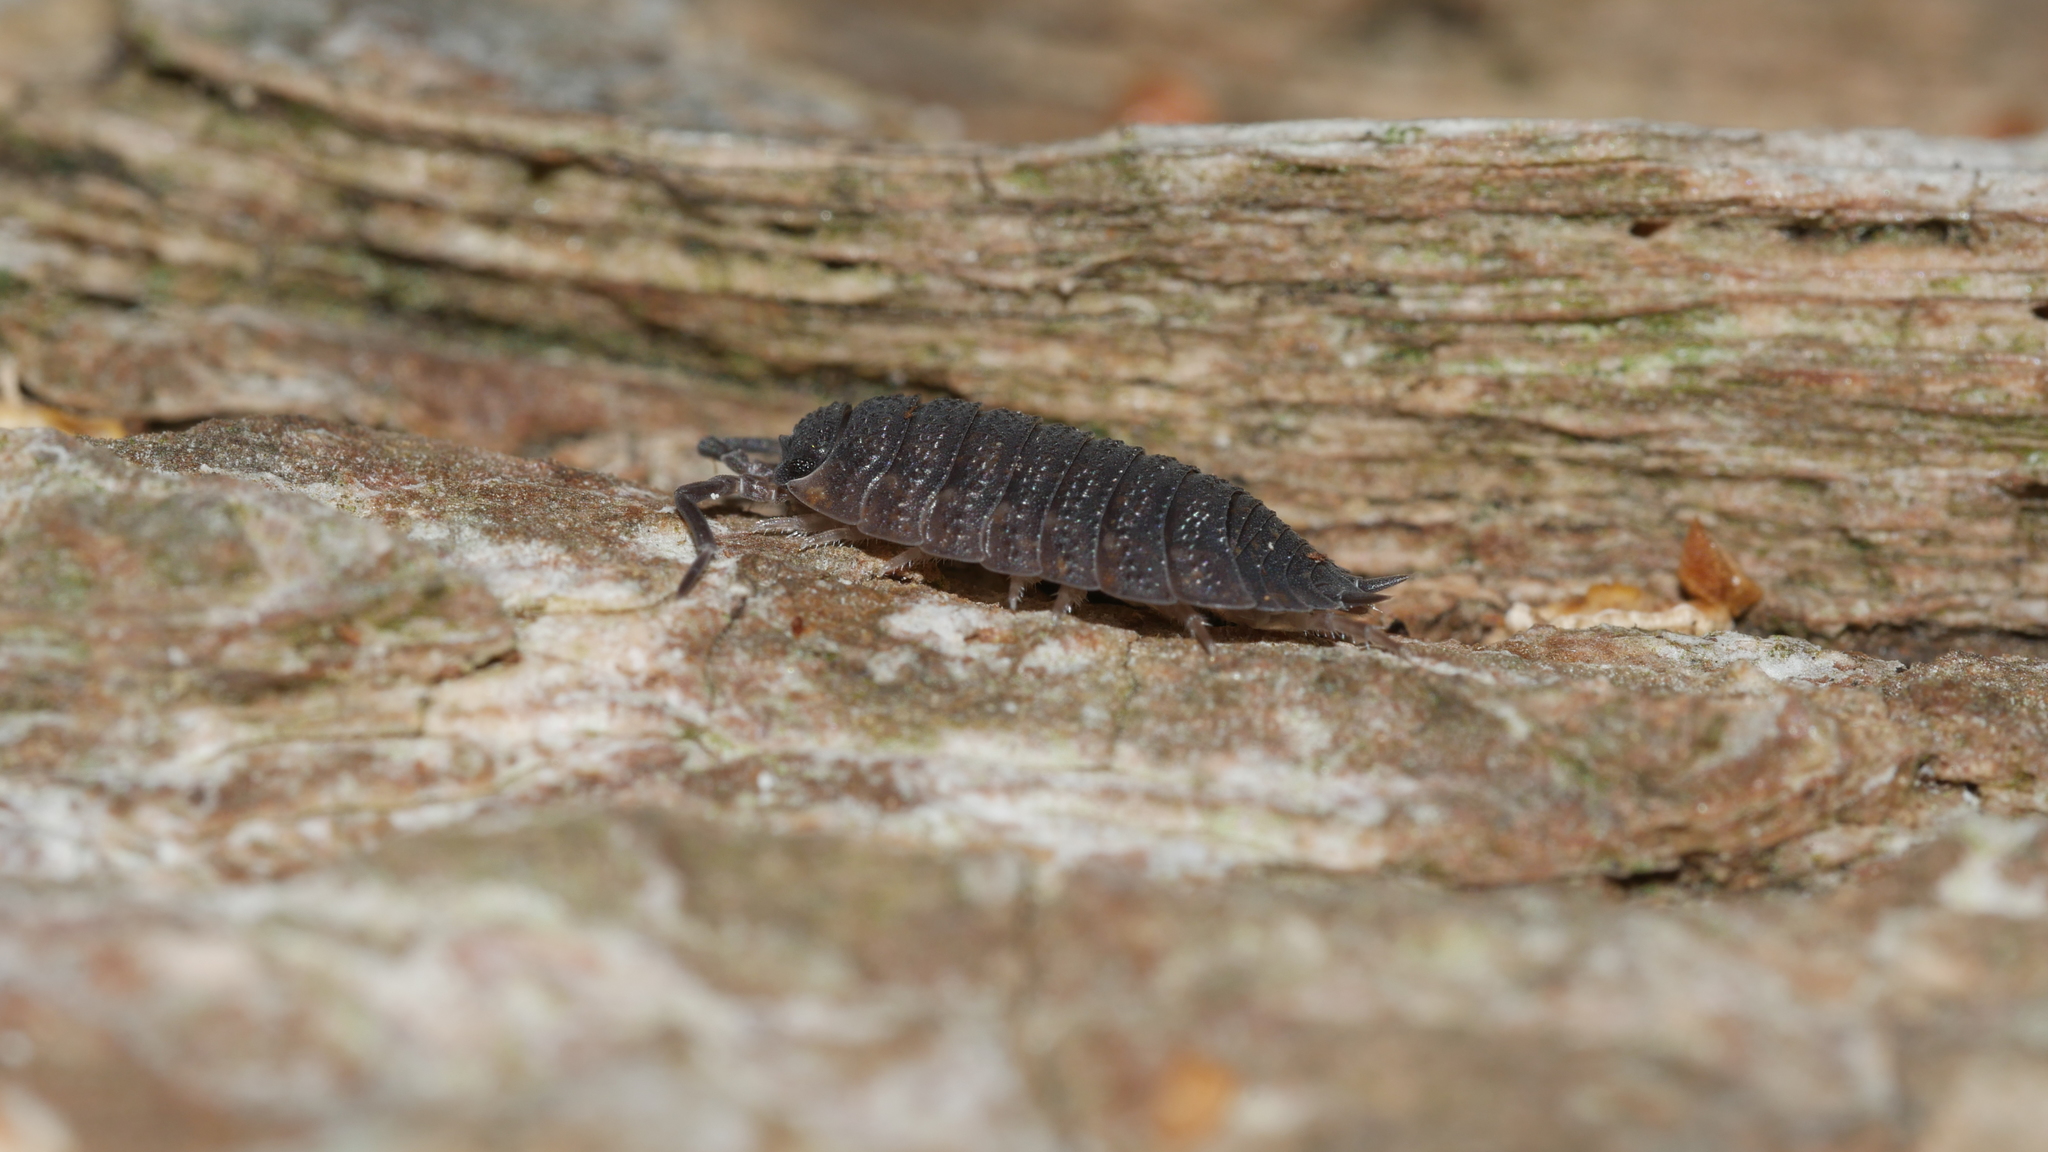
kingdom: Animalia
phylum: Arthropoda
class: Malacostraca
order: Isopoda
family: Porcellionidae
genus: Porcellio
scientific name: Porcellio scaber
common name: Common rough woodlouse
